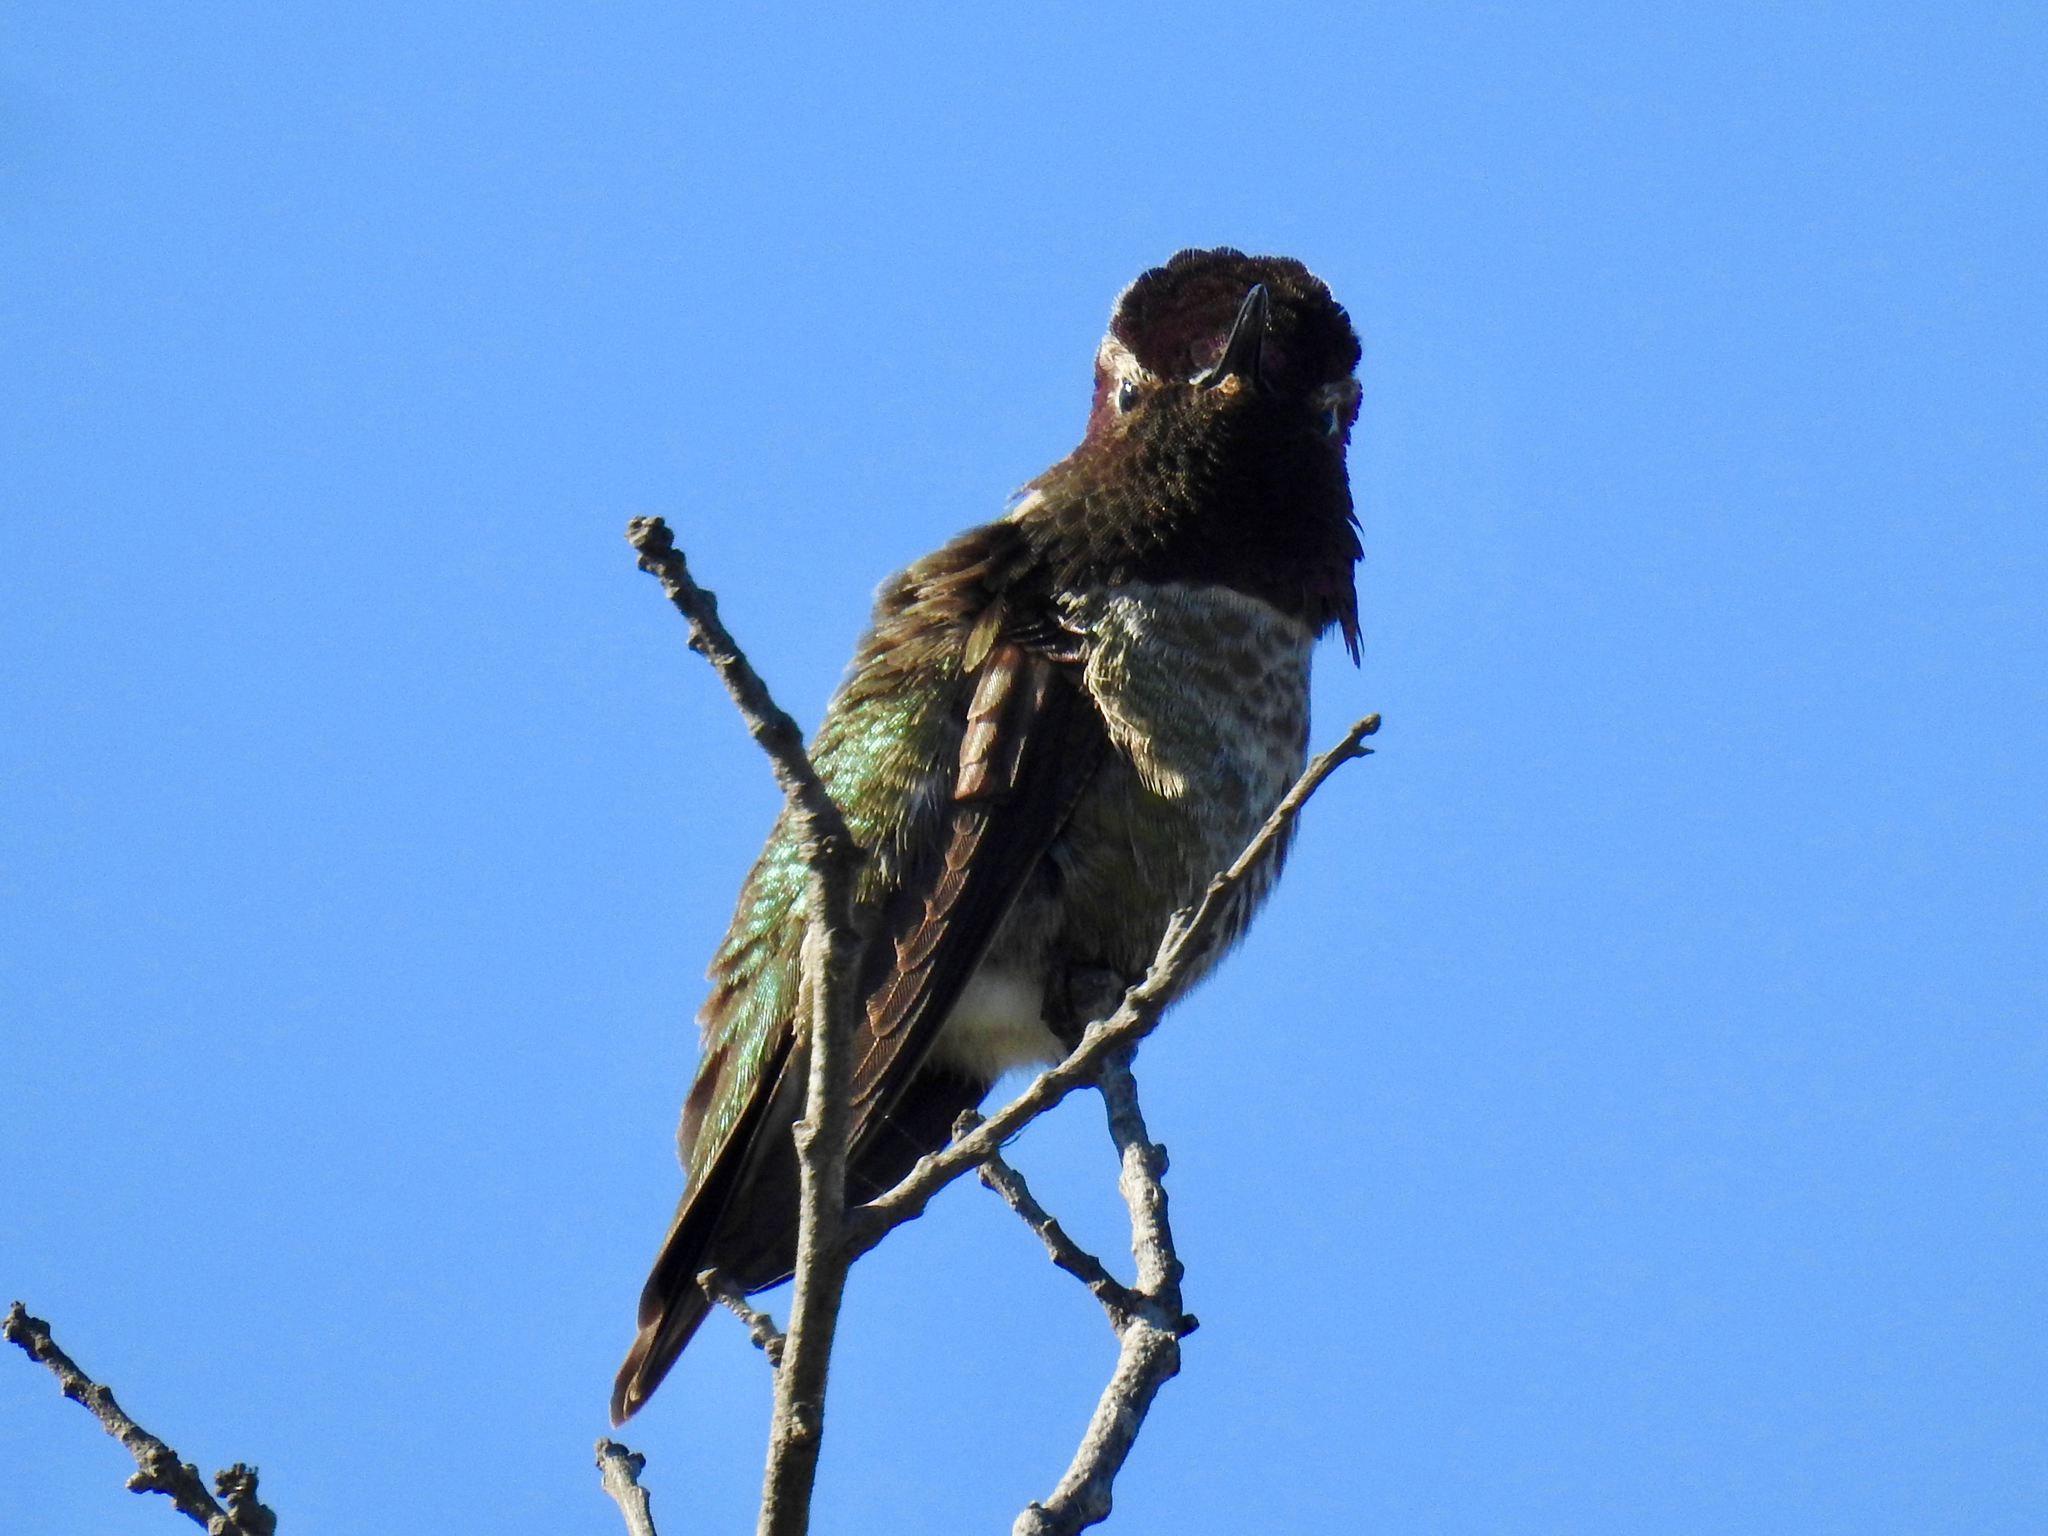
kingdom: Animalia
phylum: Chordata
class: Aves
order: Apodiformes
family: Trochilidae
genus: Calypte
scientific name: Calypte anna
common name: Anna's hummingbird
